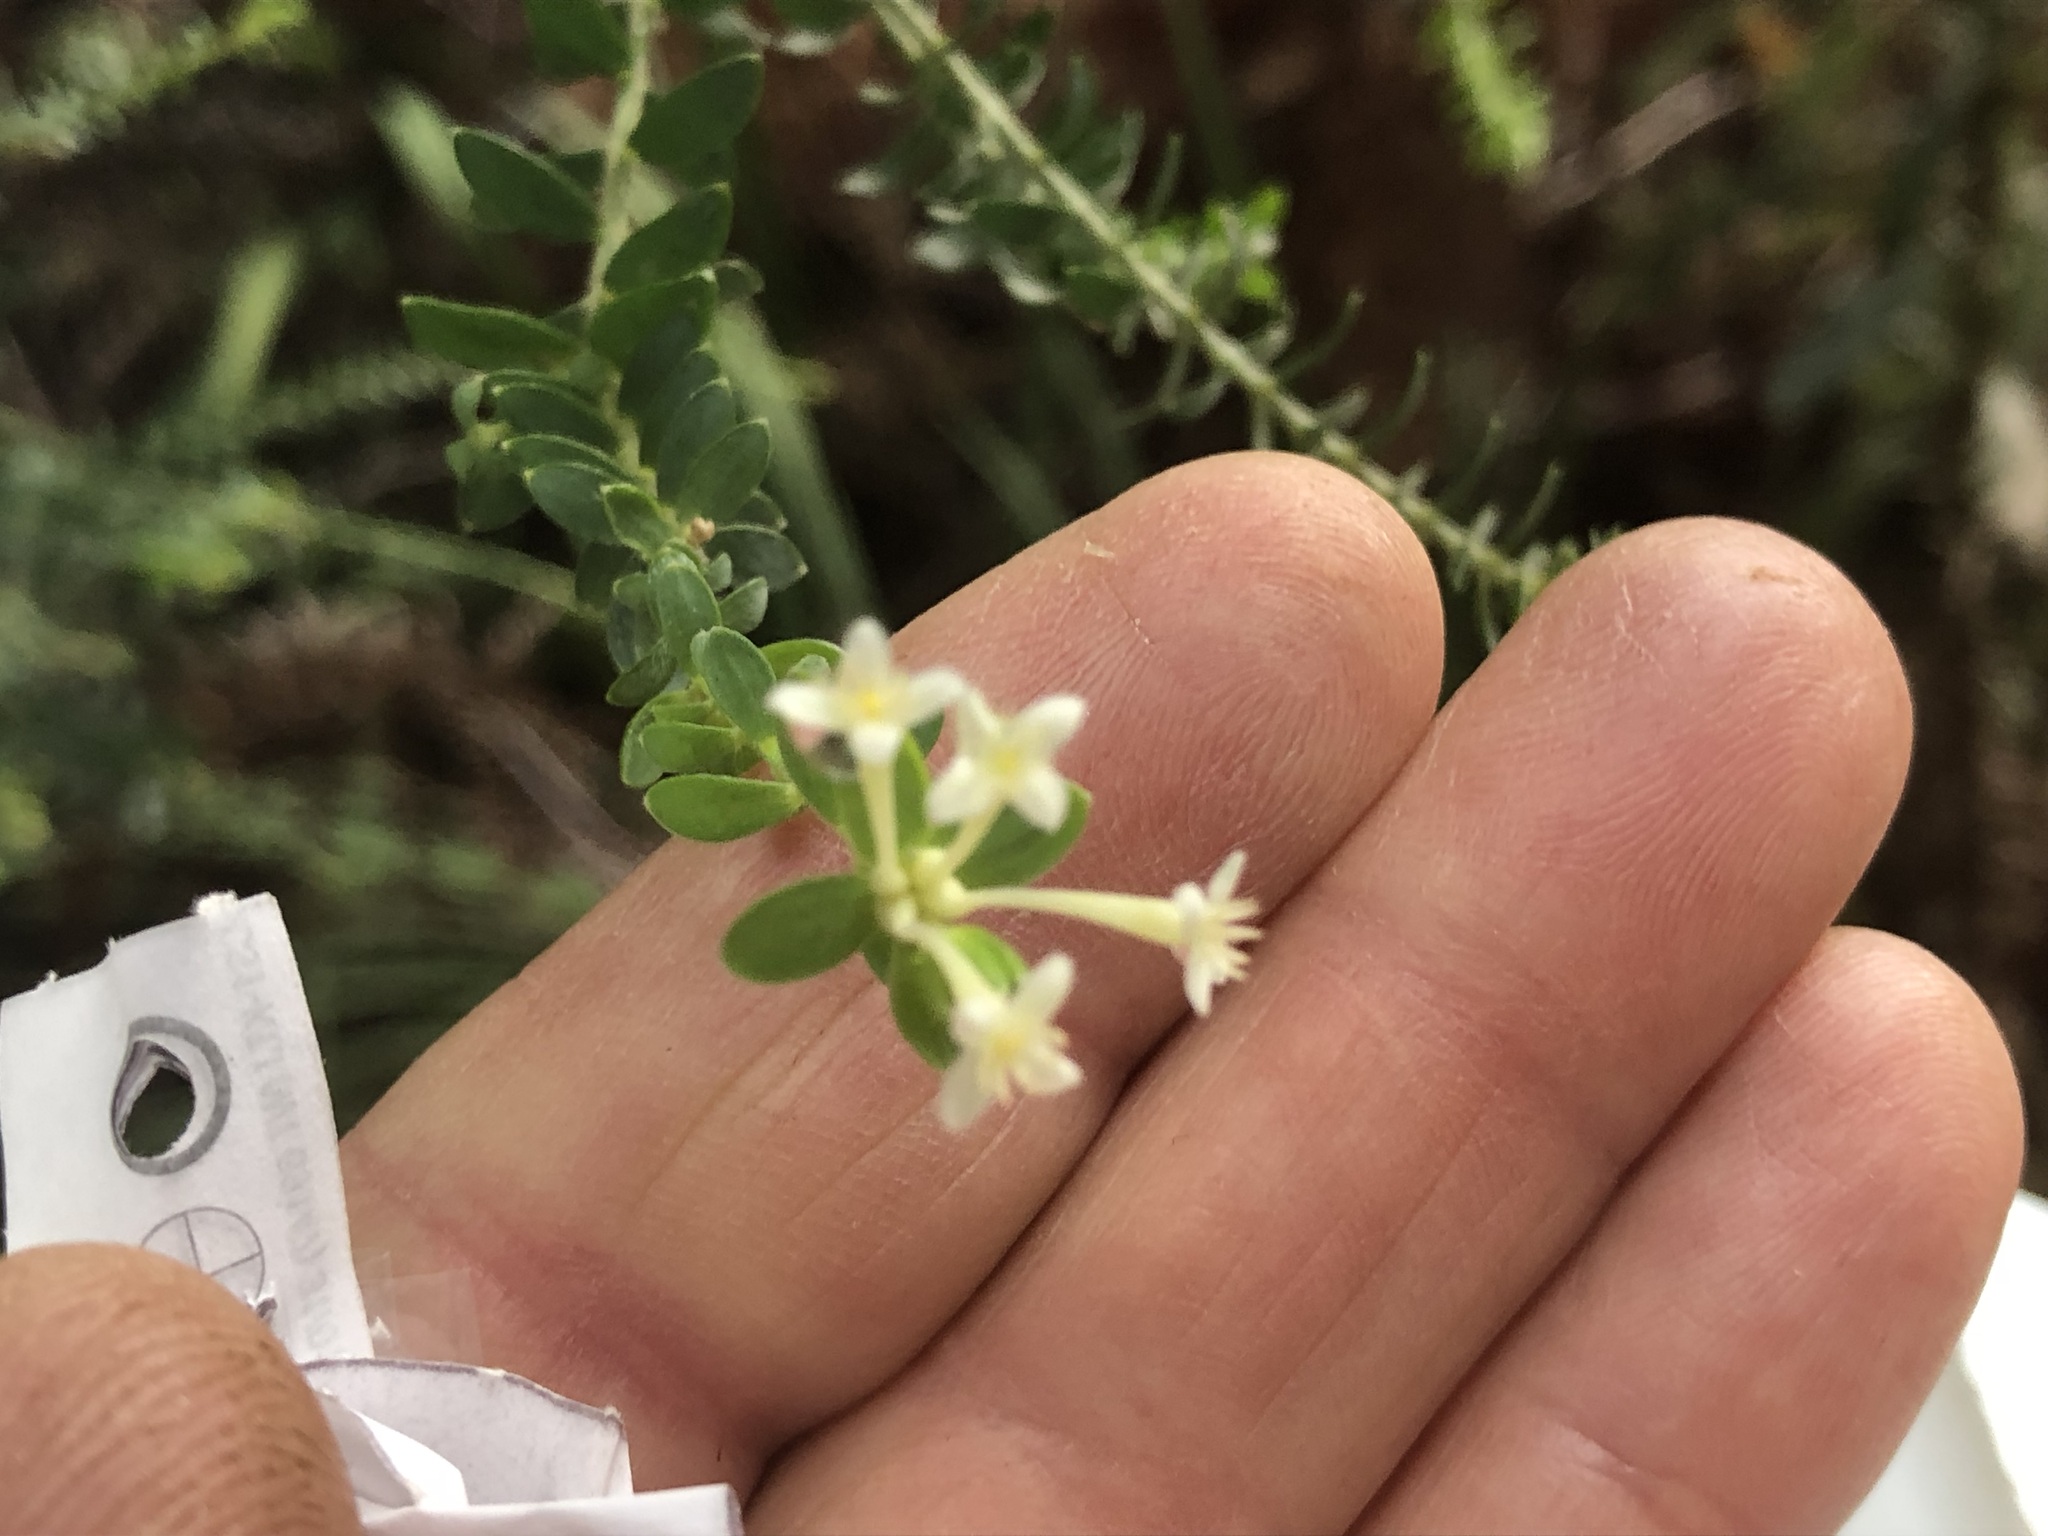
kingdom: Plantae
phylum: Tracheophyta
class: Magnoliopsida
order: Malvales
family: Thymelaeaceae
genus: Gnidia
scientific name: Gnidia sericea
